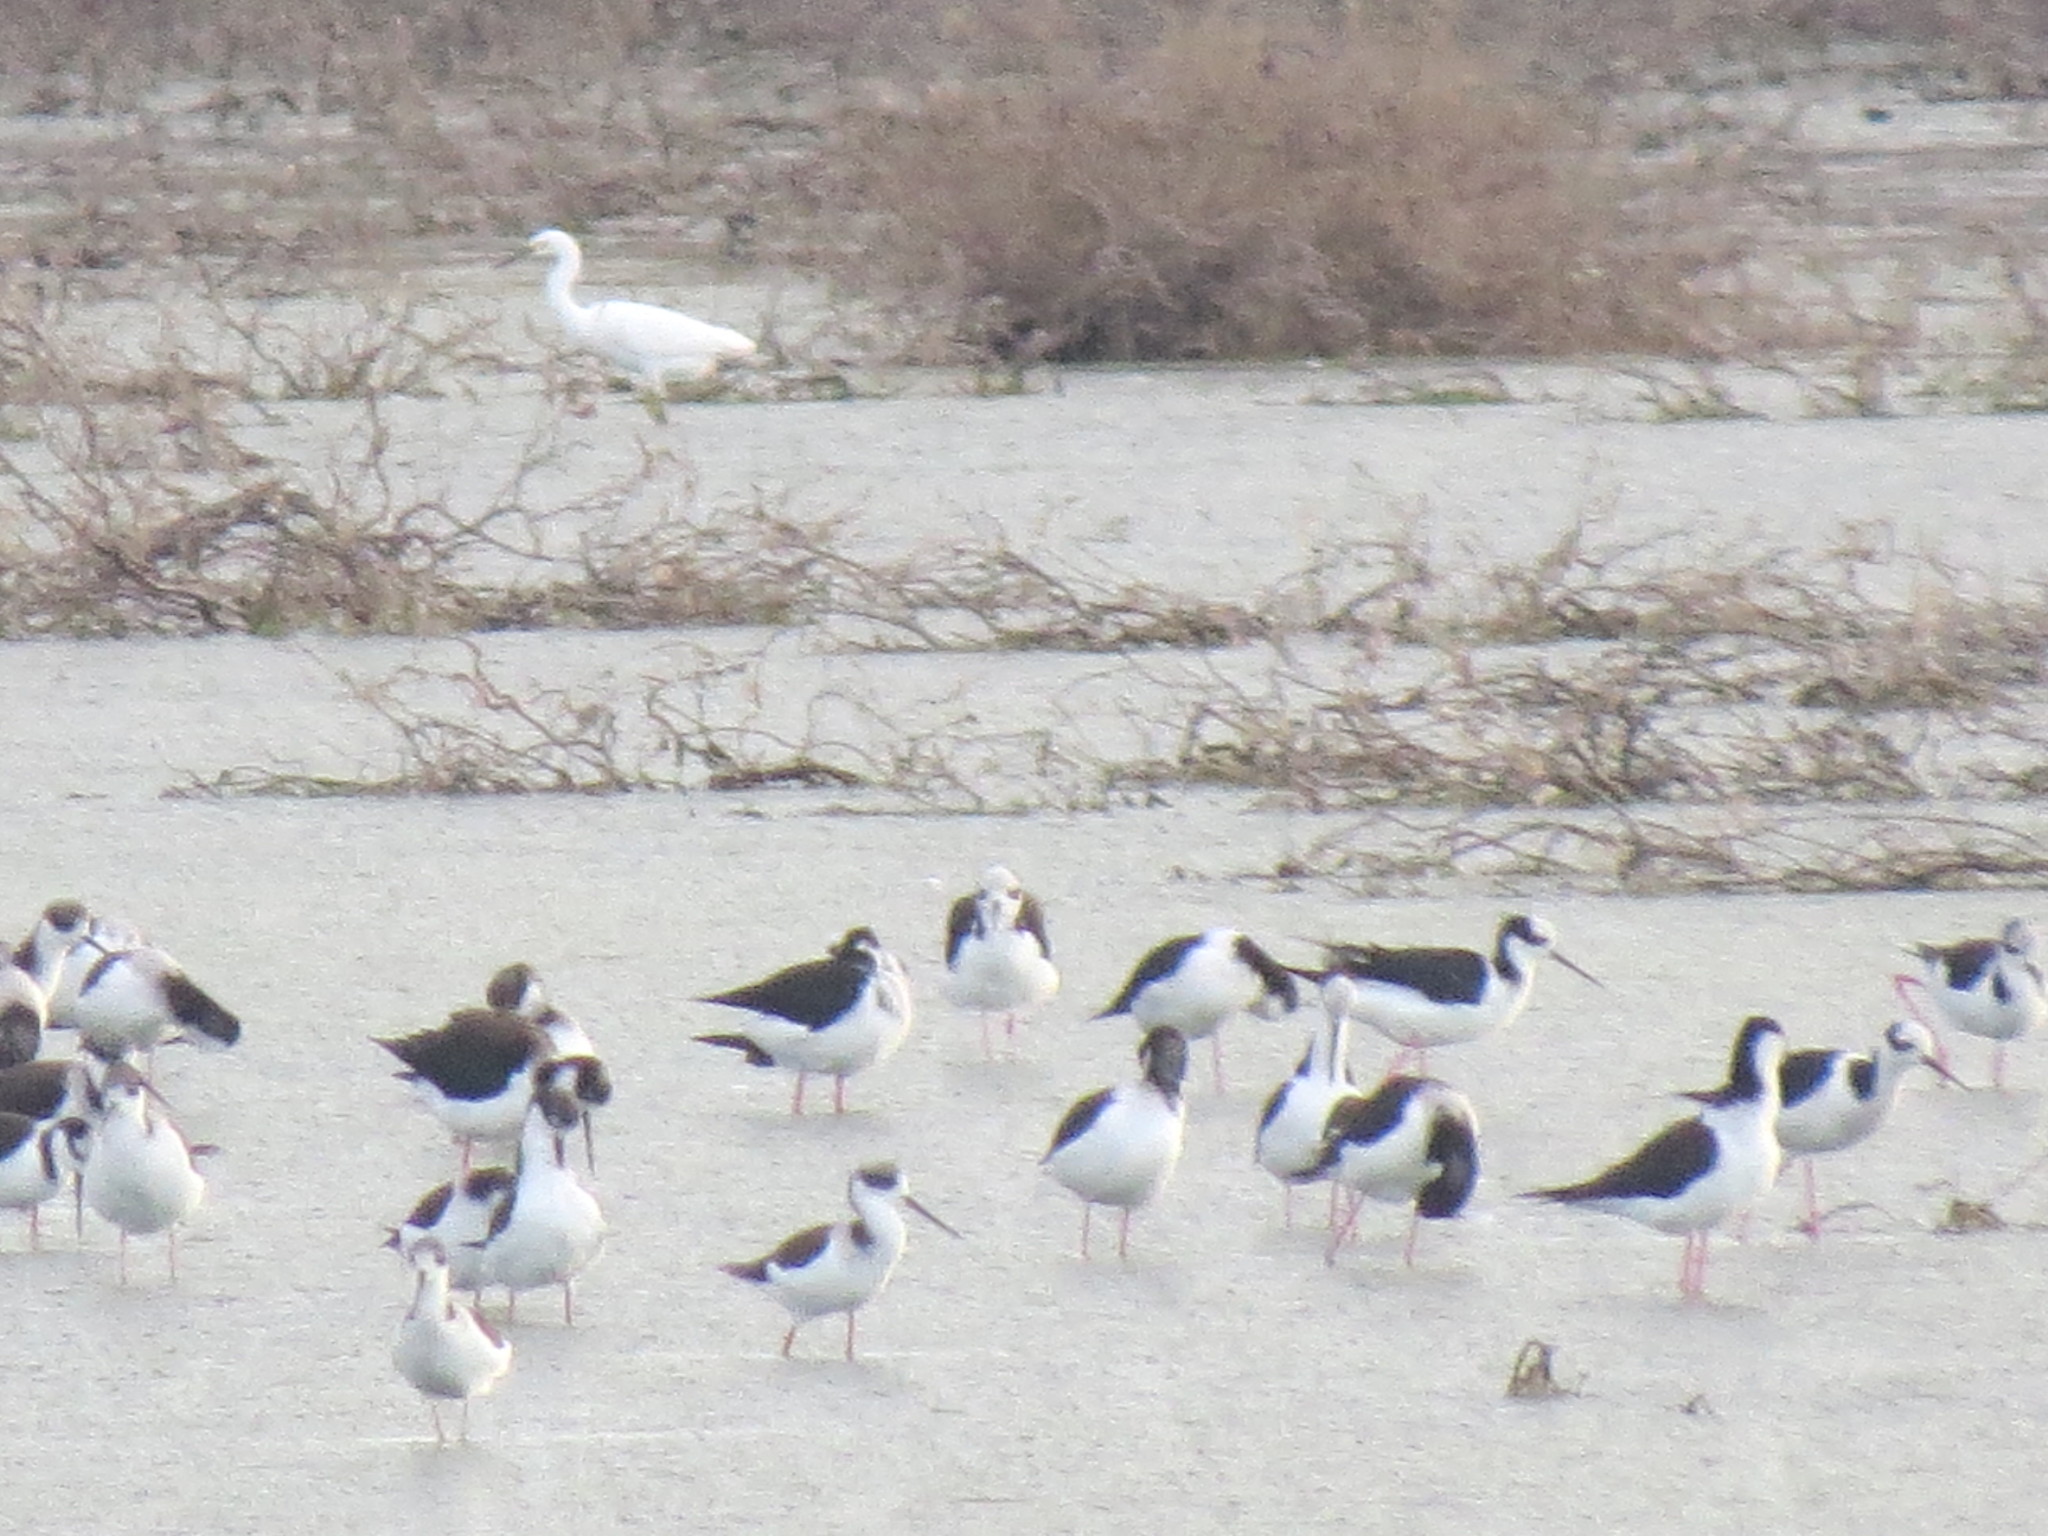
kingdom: Animalia
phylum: Chordata
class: Aves
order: Pelecaniformes
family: Ardeidae
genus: Egretta
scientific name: Egretta thula
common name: Snowy egret
